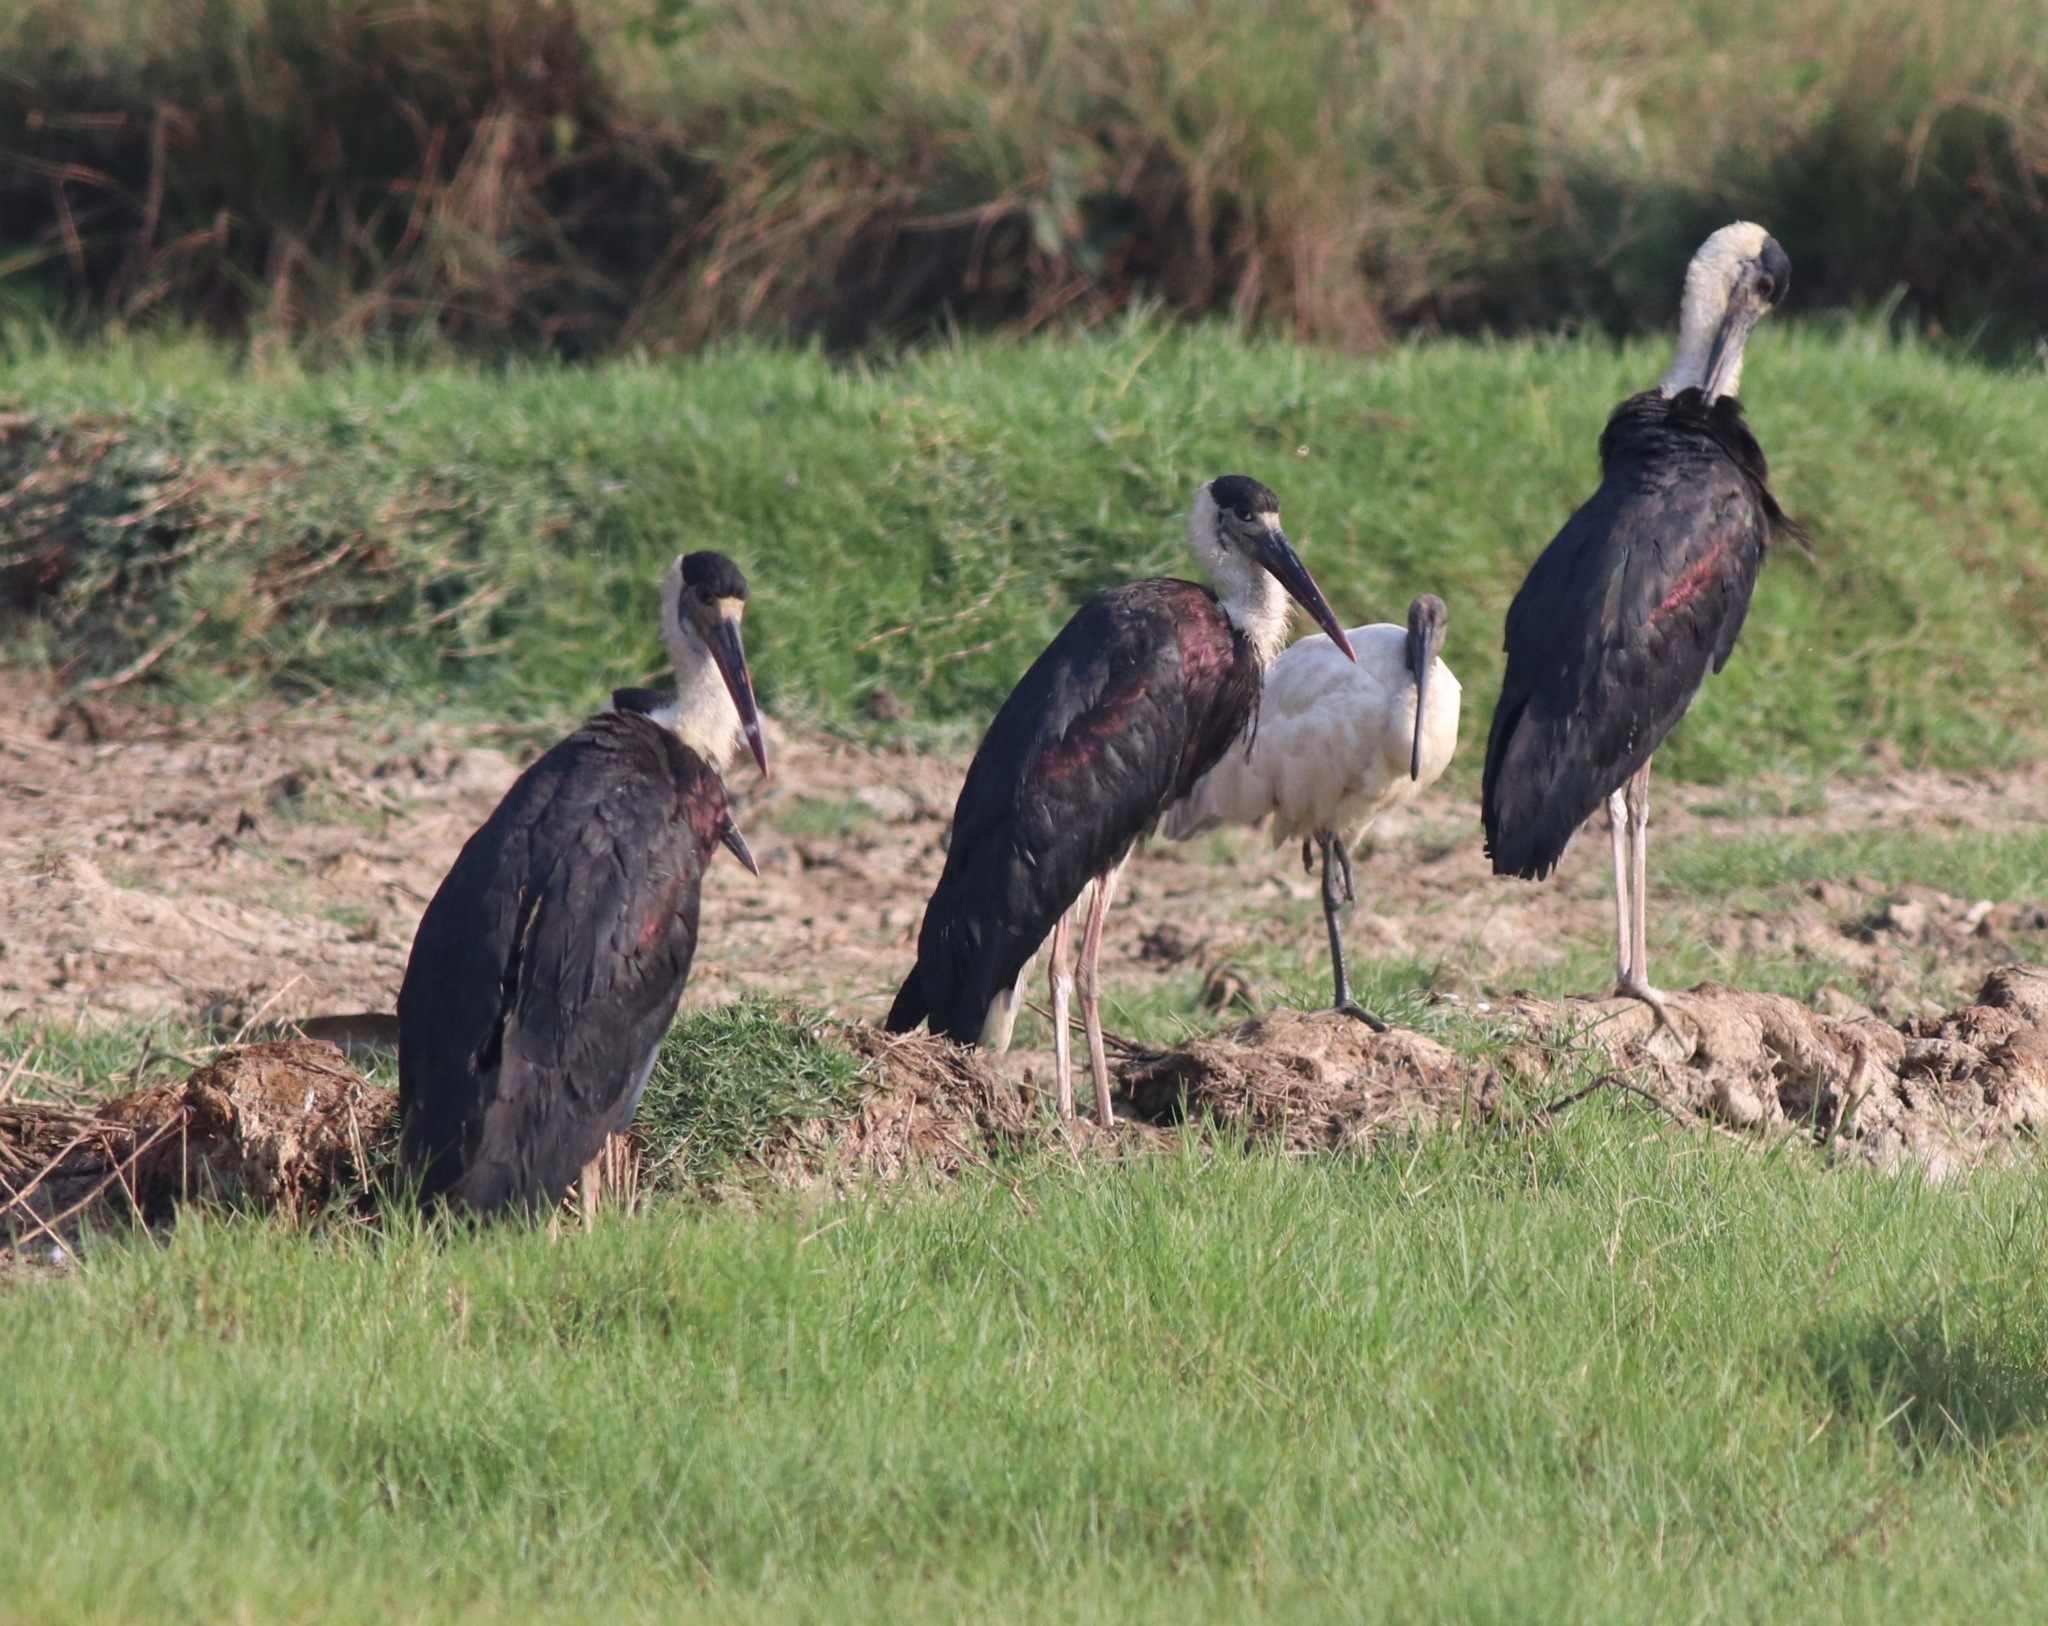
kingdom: Animalia
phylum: Chordata
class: Aves
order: Ciconiiformes
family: Ciconiidae
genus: Ciconia
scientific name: Ciconia episcopus
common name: Woolly-necked stork
